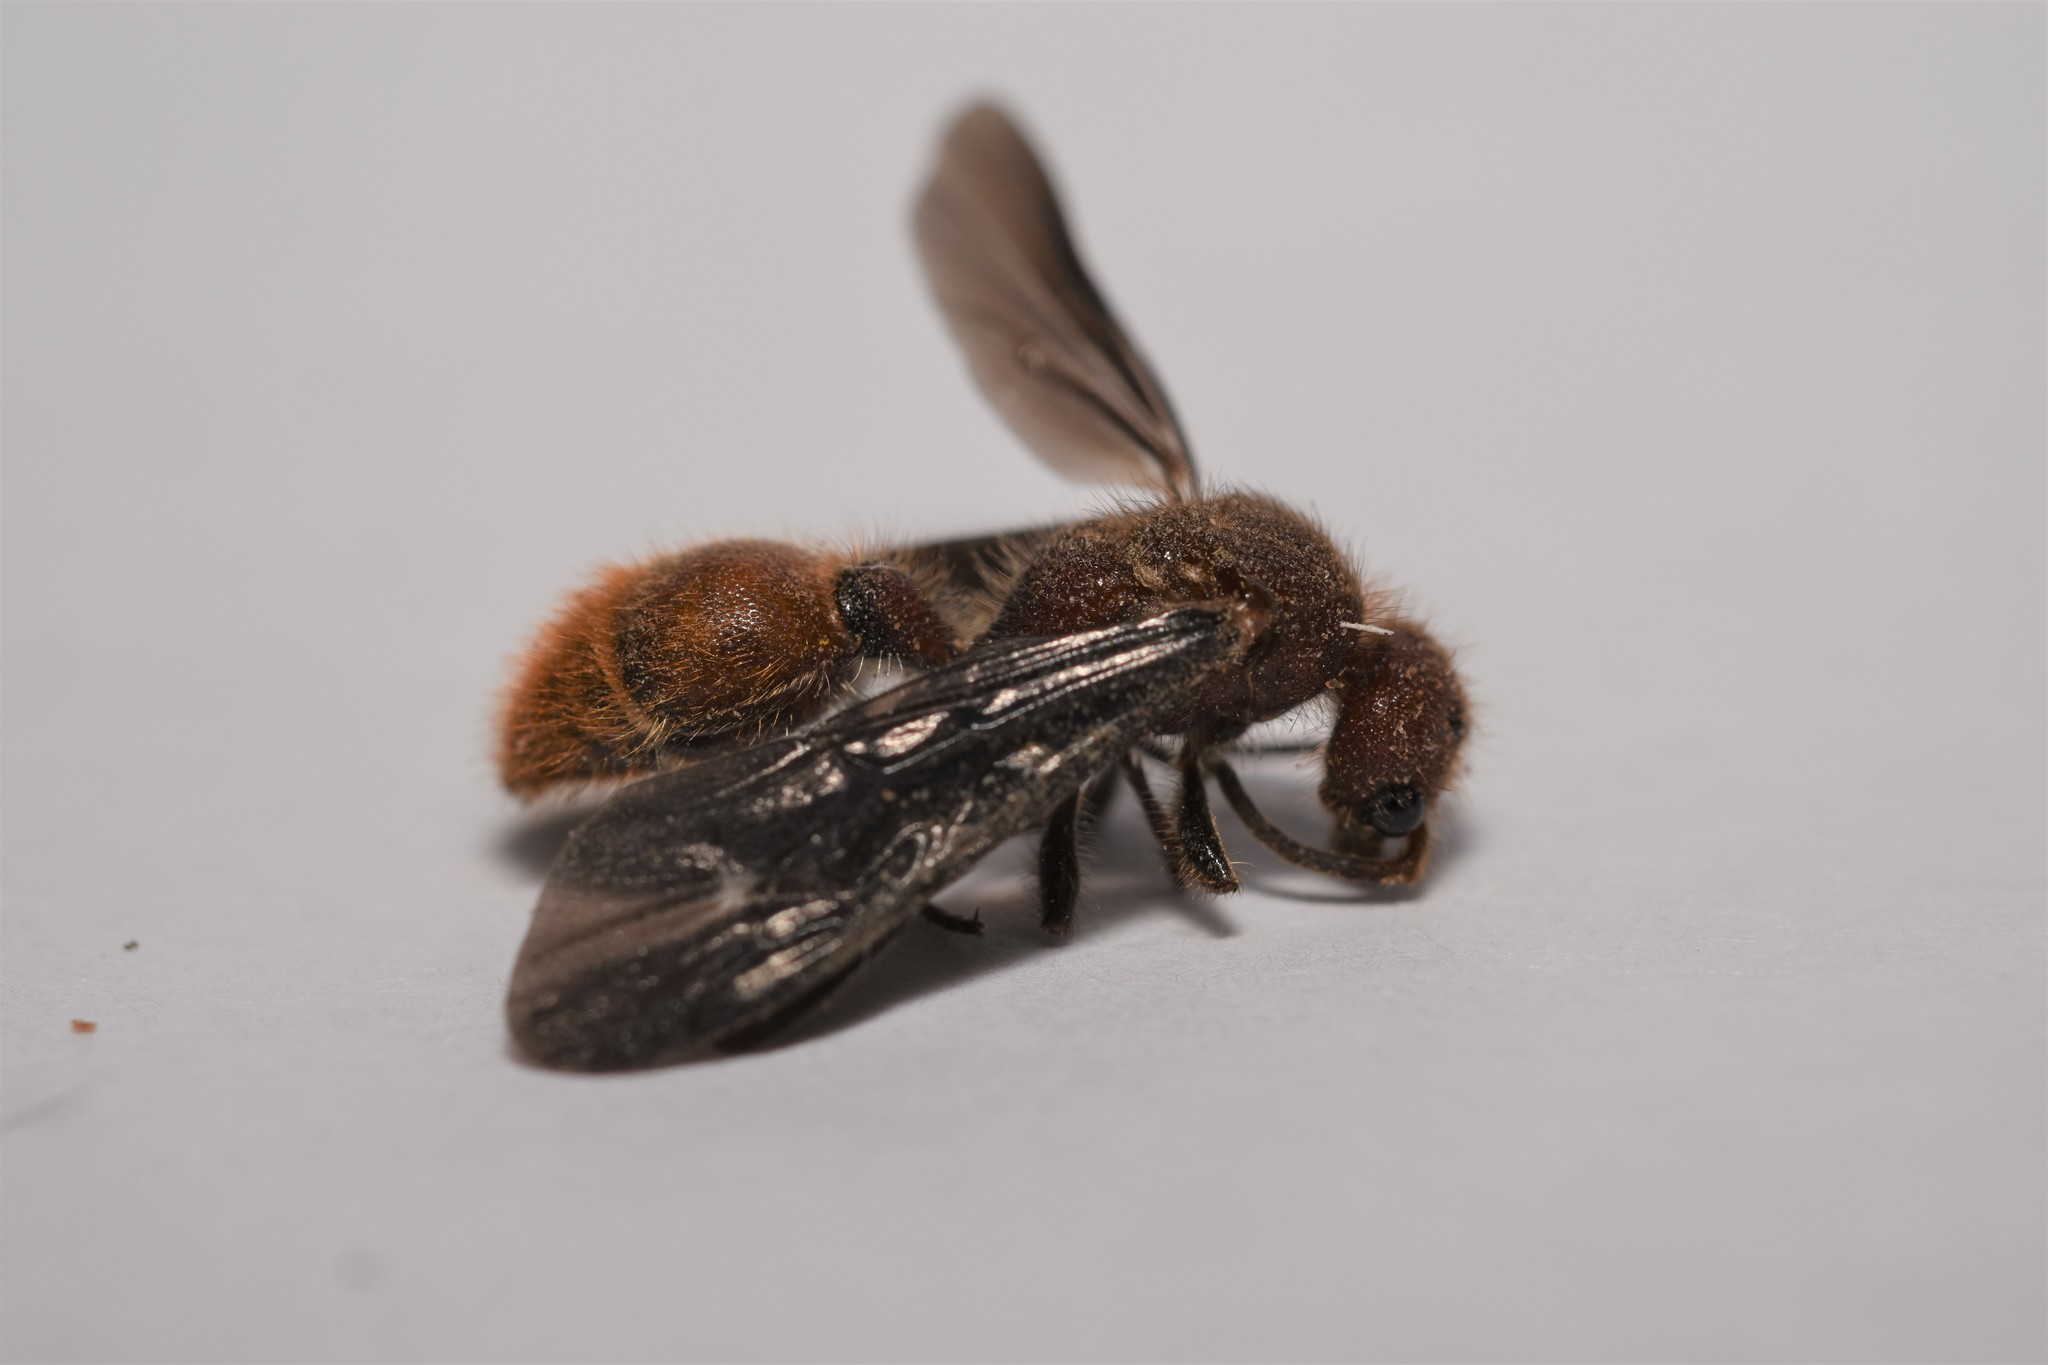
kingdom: Animalia
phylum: Arthropoda
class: Insecta
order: Hymenoptera
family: Mutillidae
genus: Sphaeropthalma
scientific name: Sphaeropthalma
